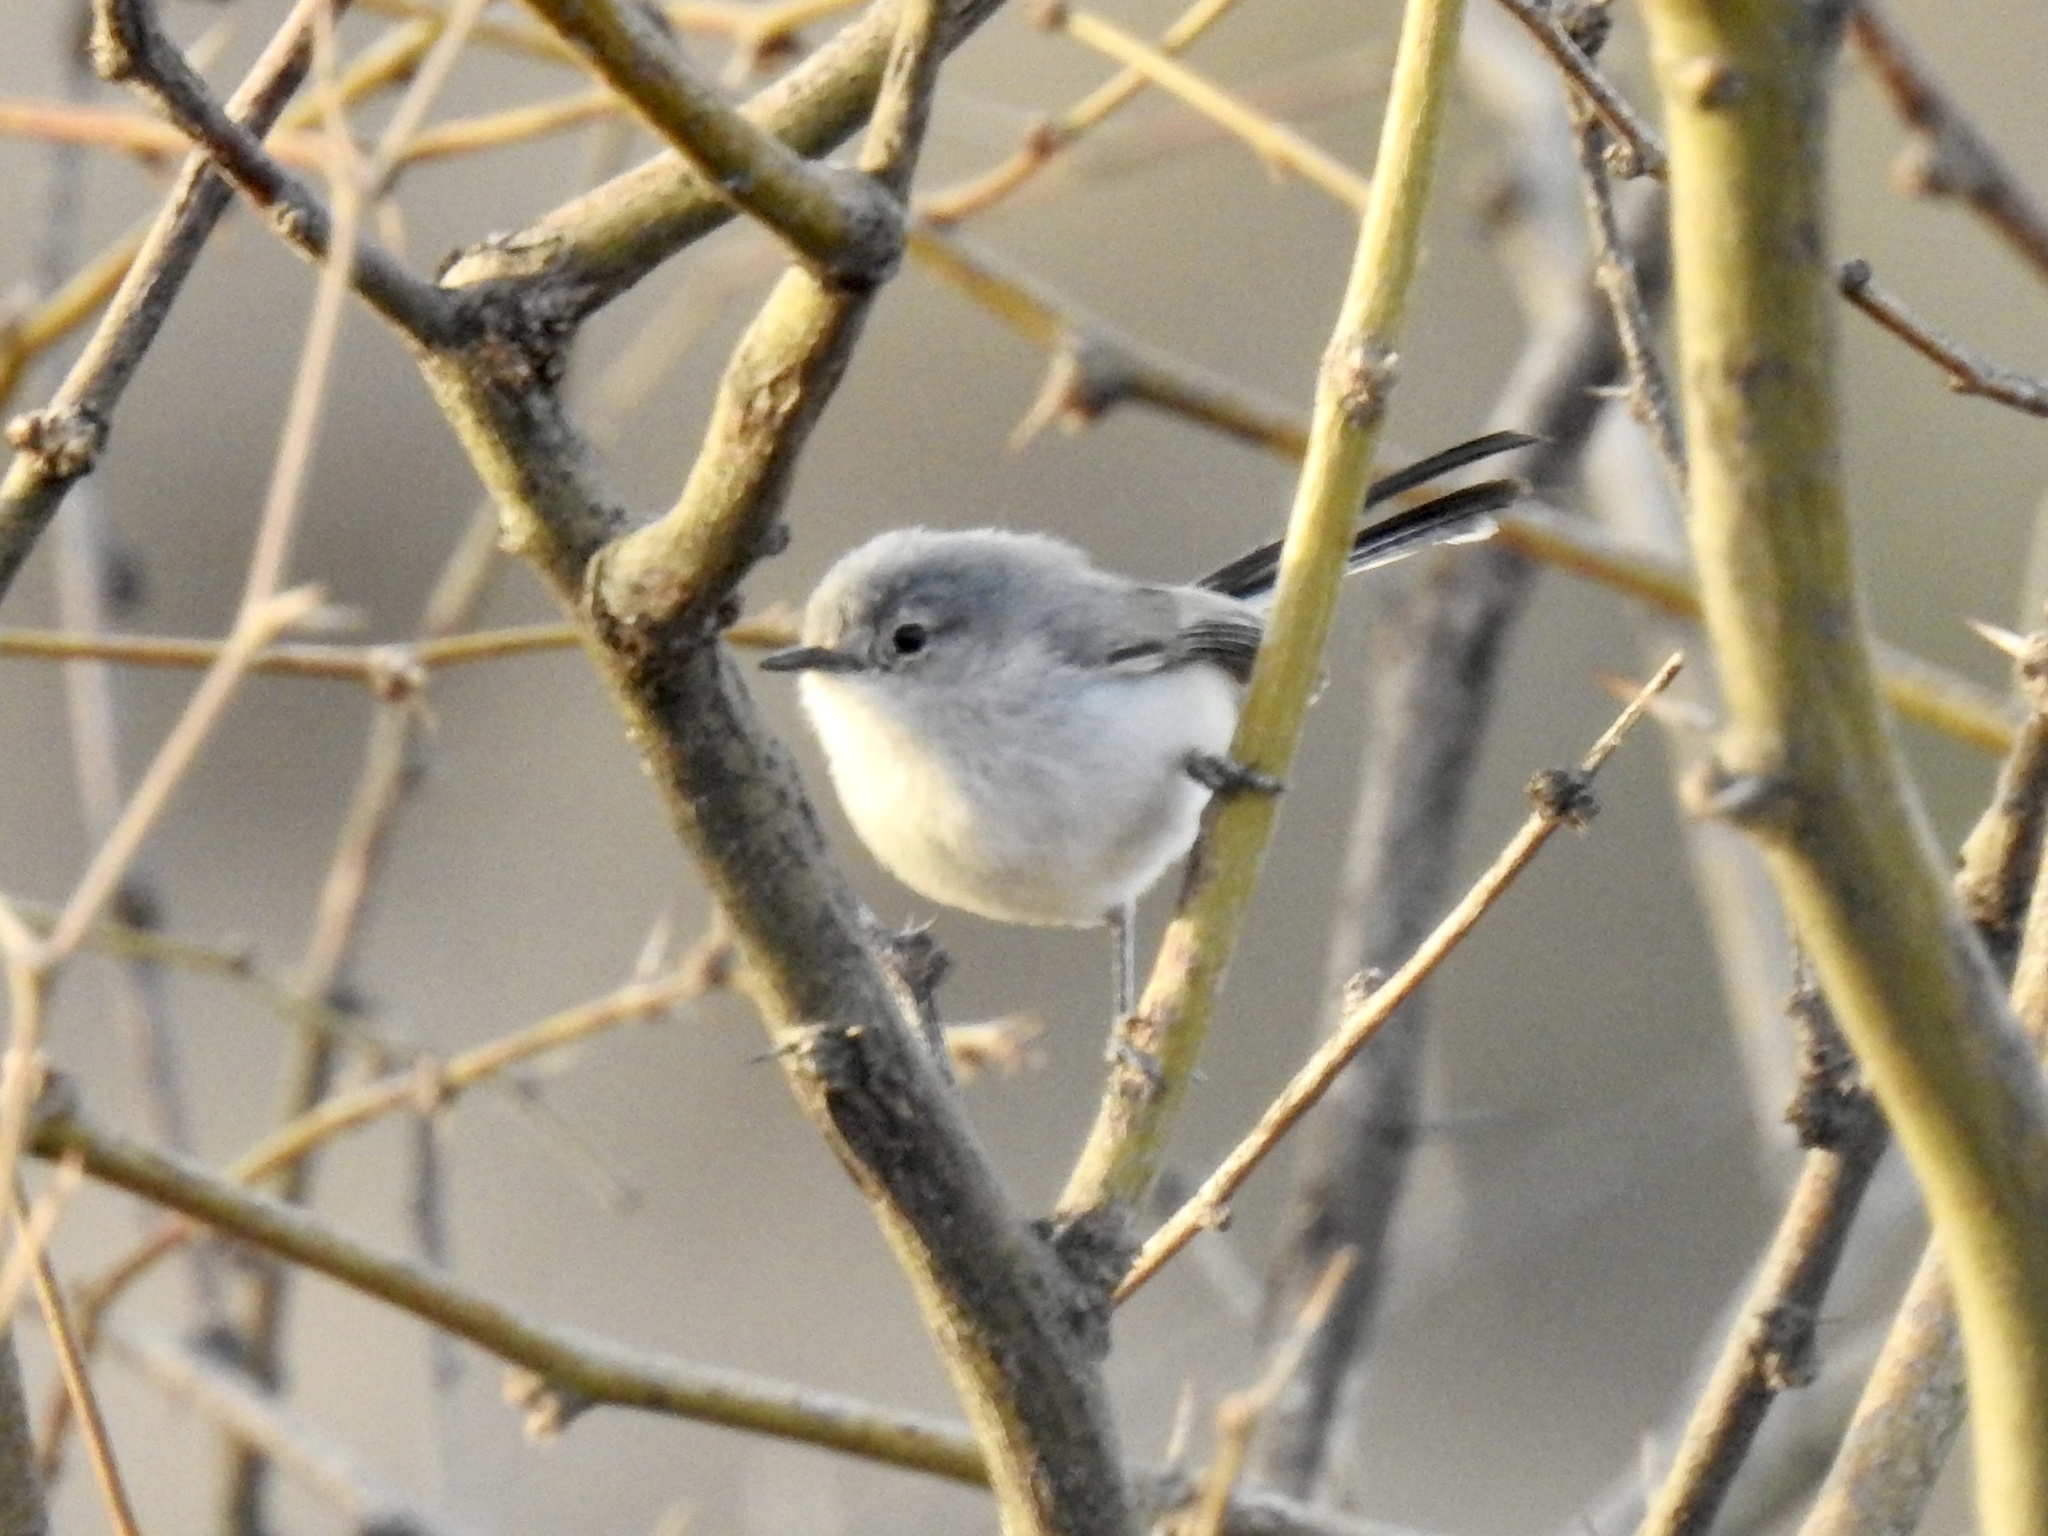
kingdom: Animalia
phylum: Chordata
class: Aves
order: Passeriformes
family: Polioptilidae
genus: Polioptila
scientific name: Polioptila caerulea
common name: Blue-gray gnatcatcher
